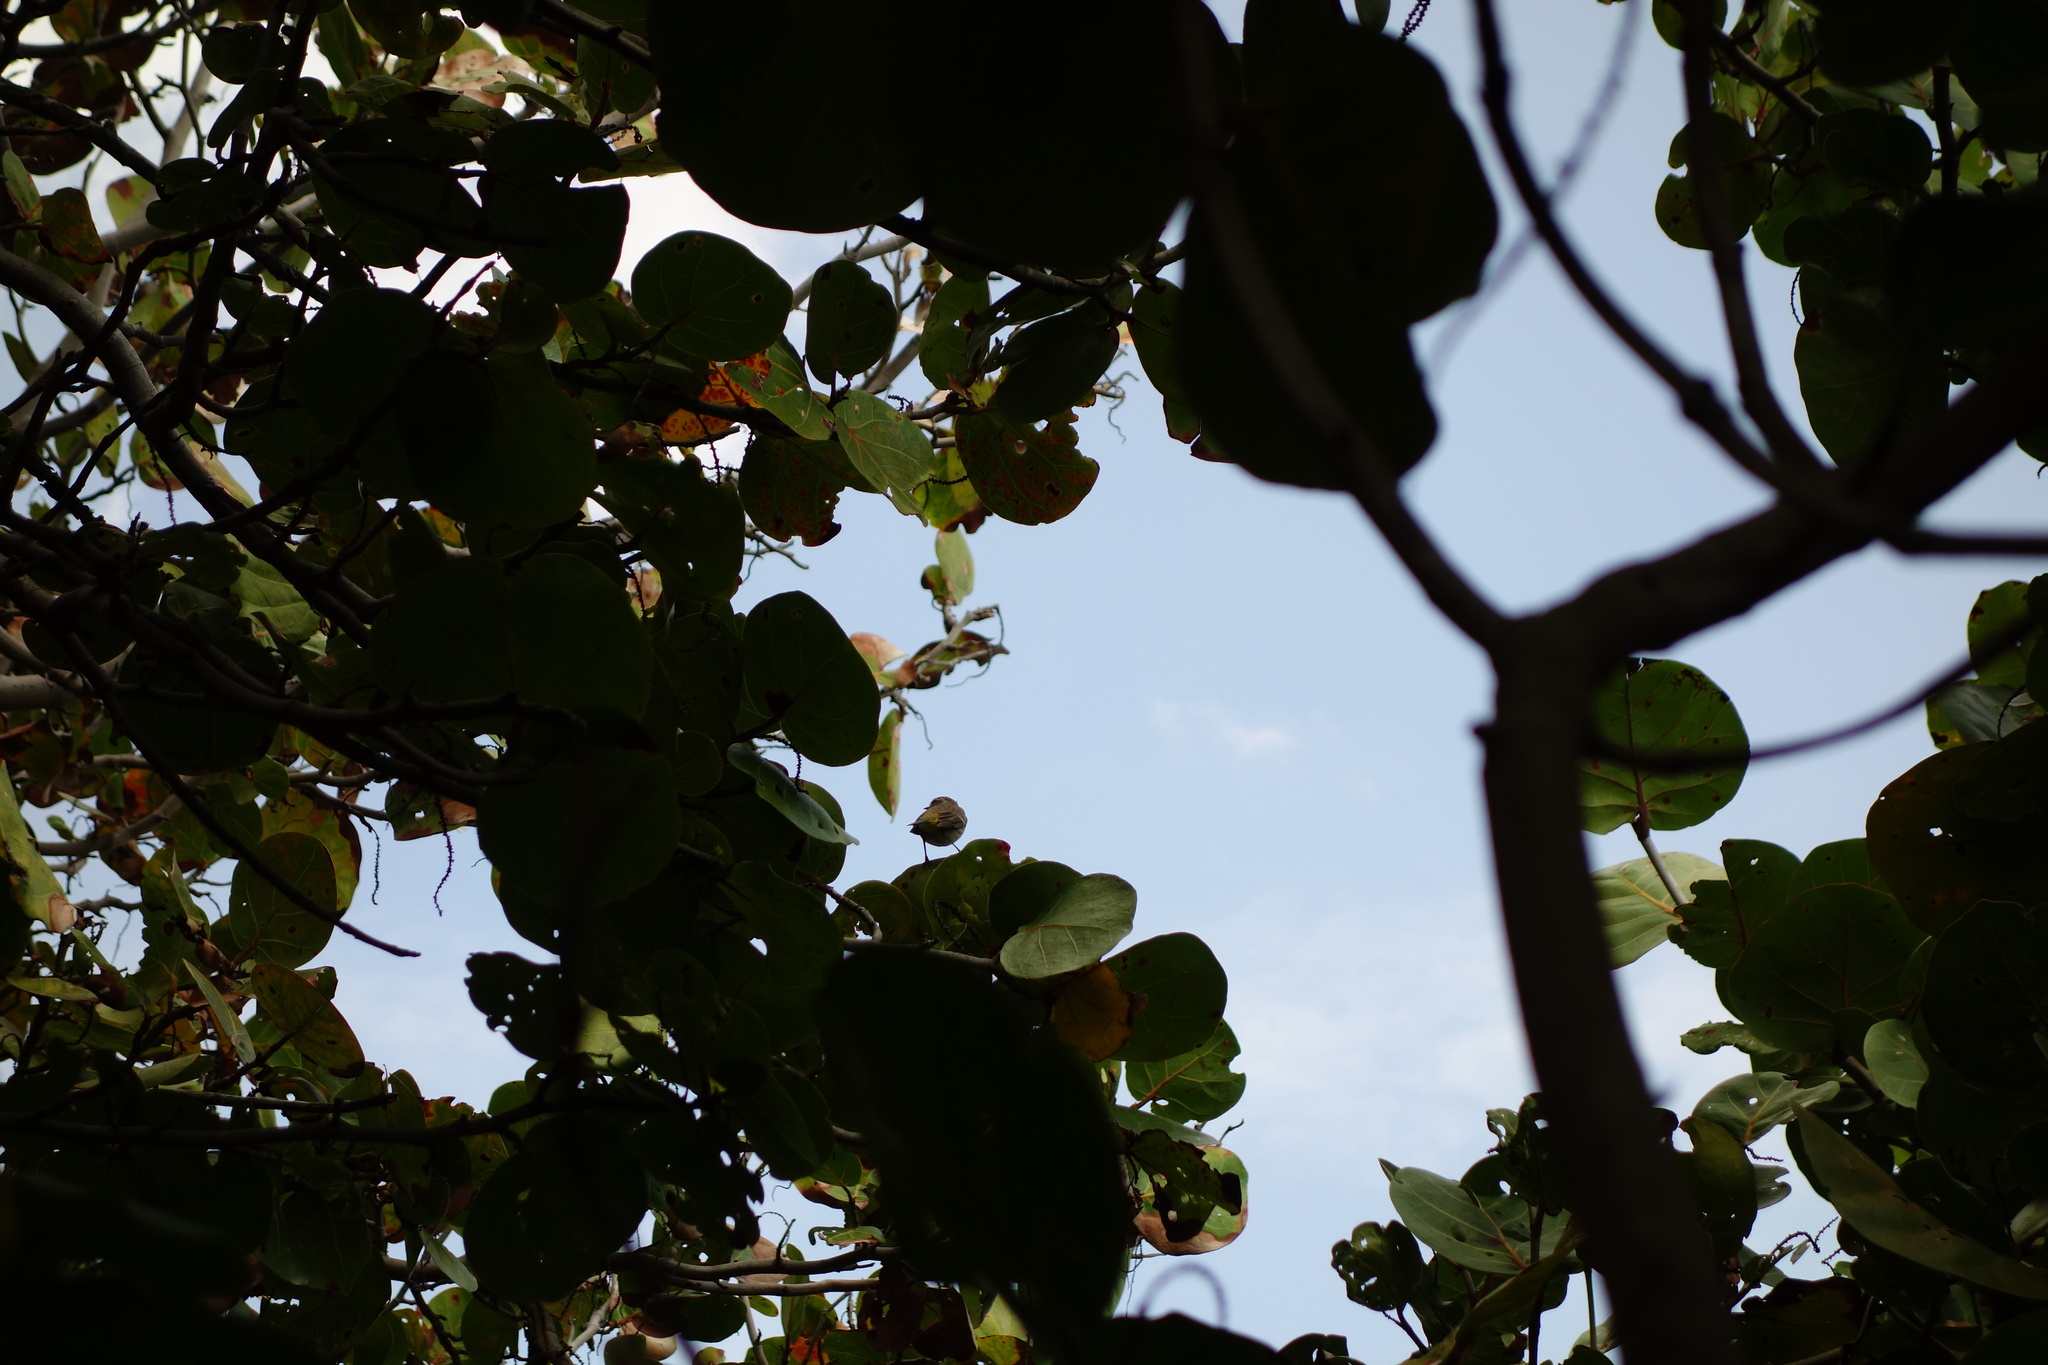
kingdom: Animalia
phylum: Chordata
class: Aves
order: Passeriformes
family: Parulidae
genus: Setophaga
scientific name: Setophaga palmarum
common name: Palm warbler
